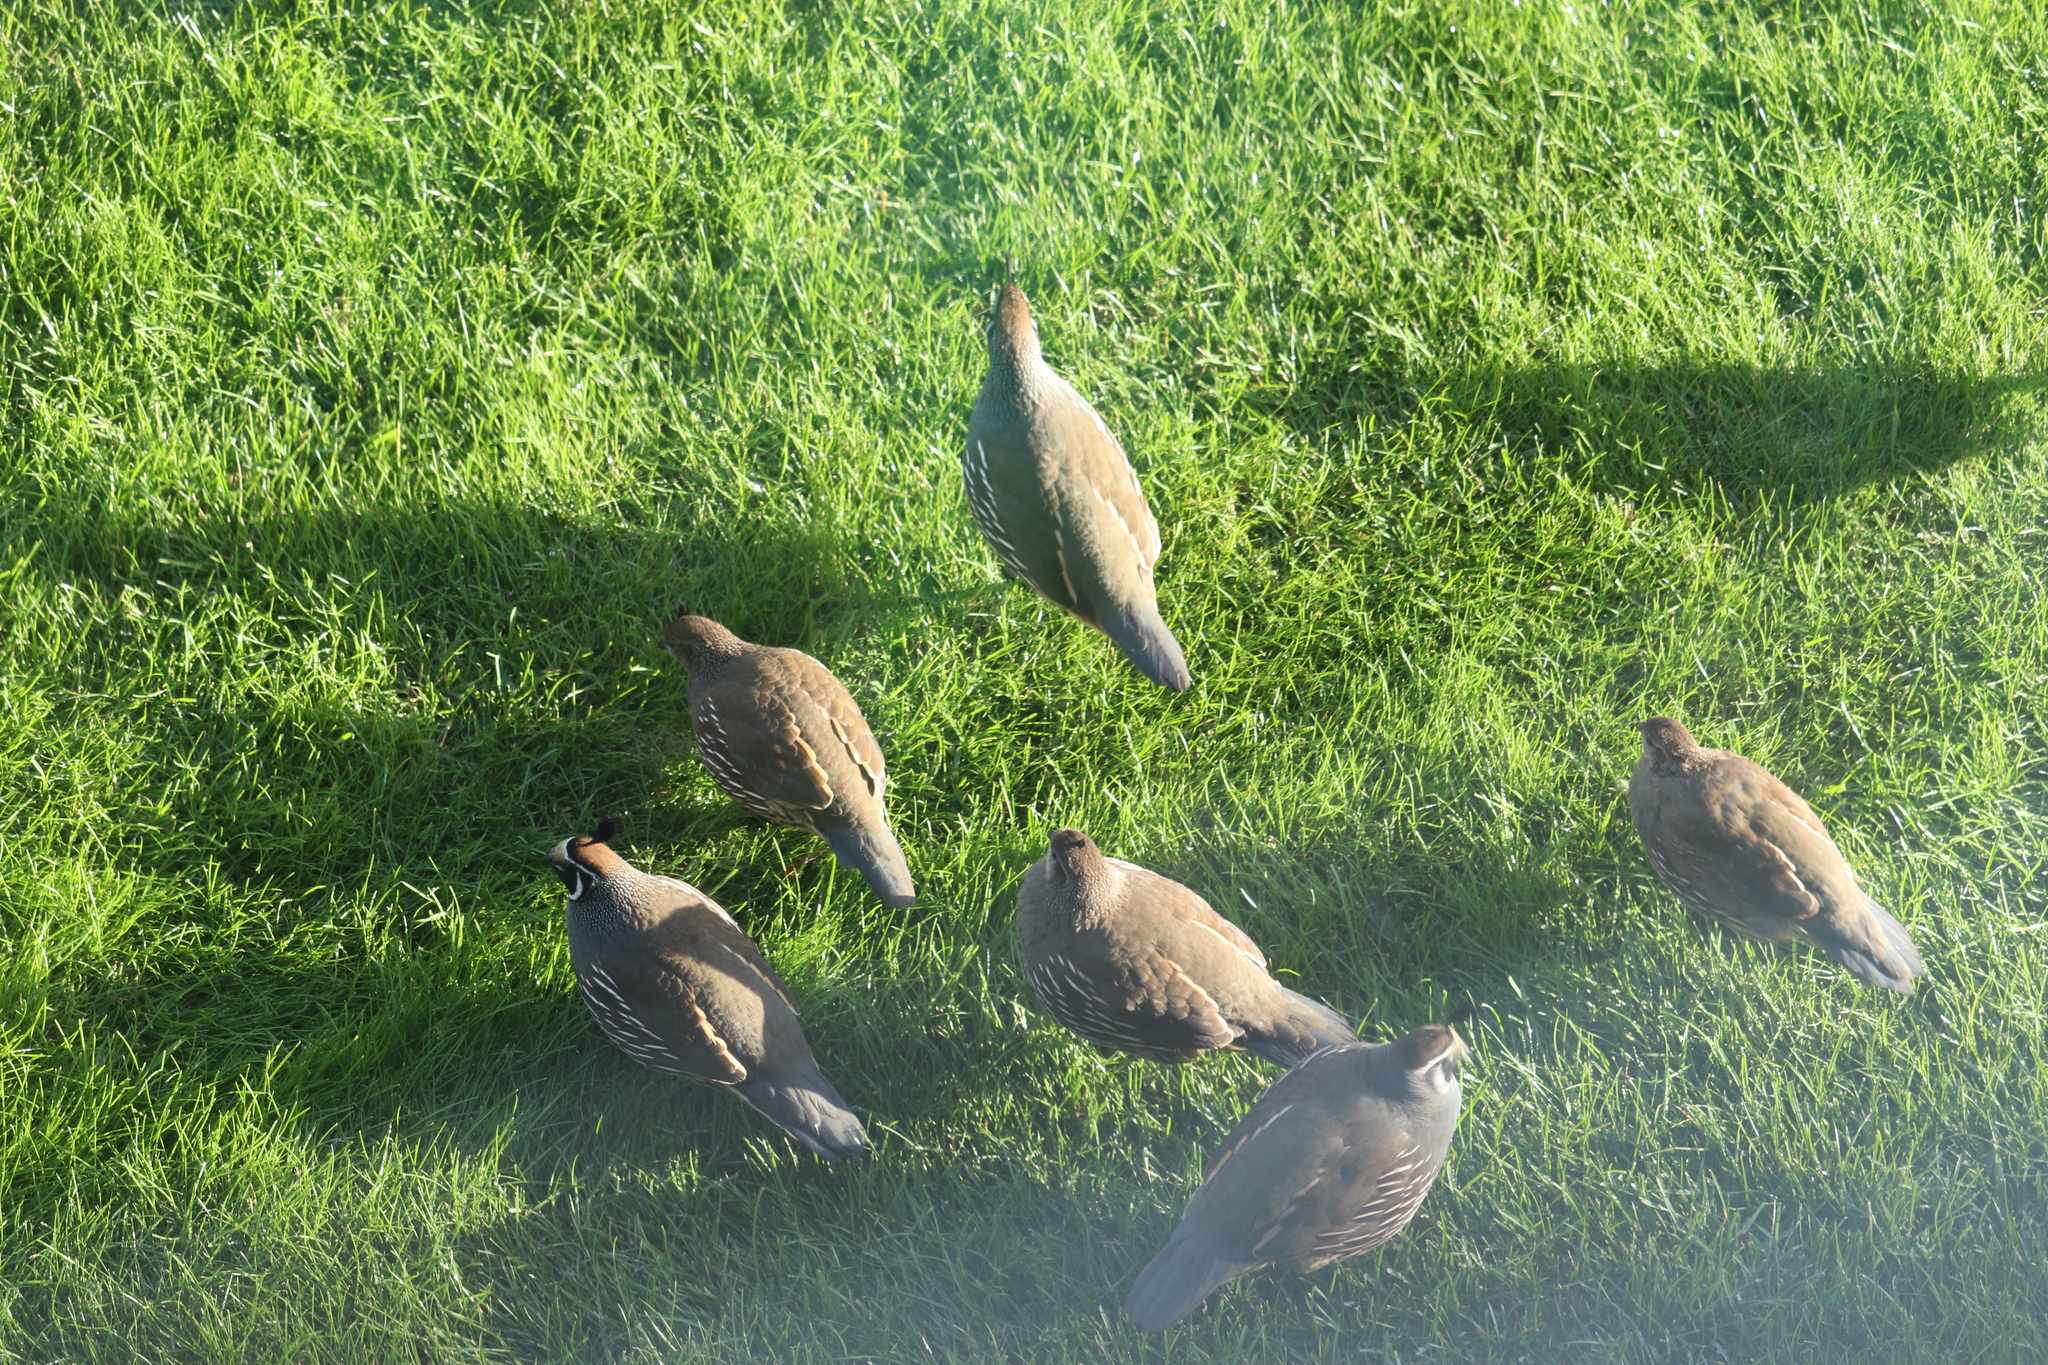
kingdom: Animalia
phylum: Chordata
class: Aves
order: Galliformes
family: Odontophoridae
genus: Callipepla
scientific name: Callipepla californica
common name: California quail
